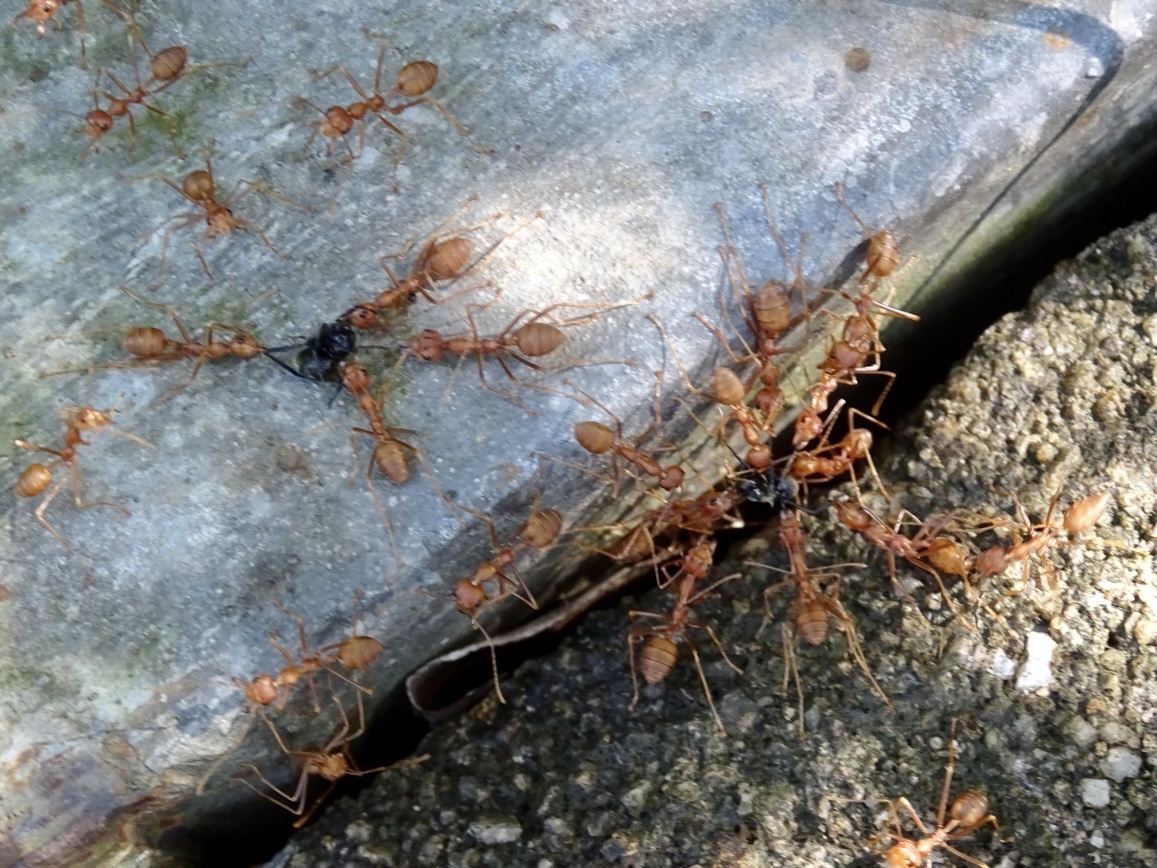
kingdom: Animalia
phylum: Arthropoda
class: Insecta
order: Hymenoptera
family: Formicidae
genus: Oecophylla
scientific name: Oecophylla smaragdina
